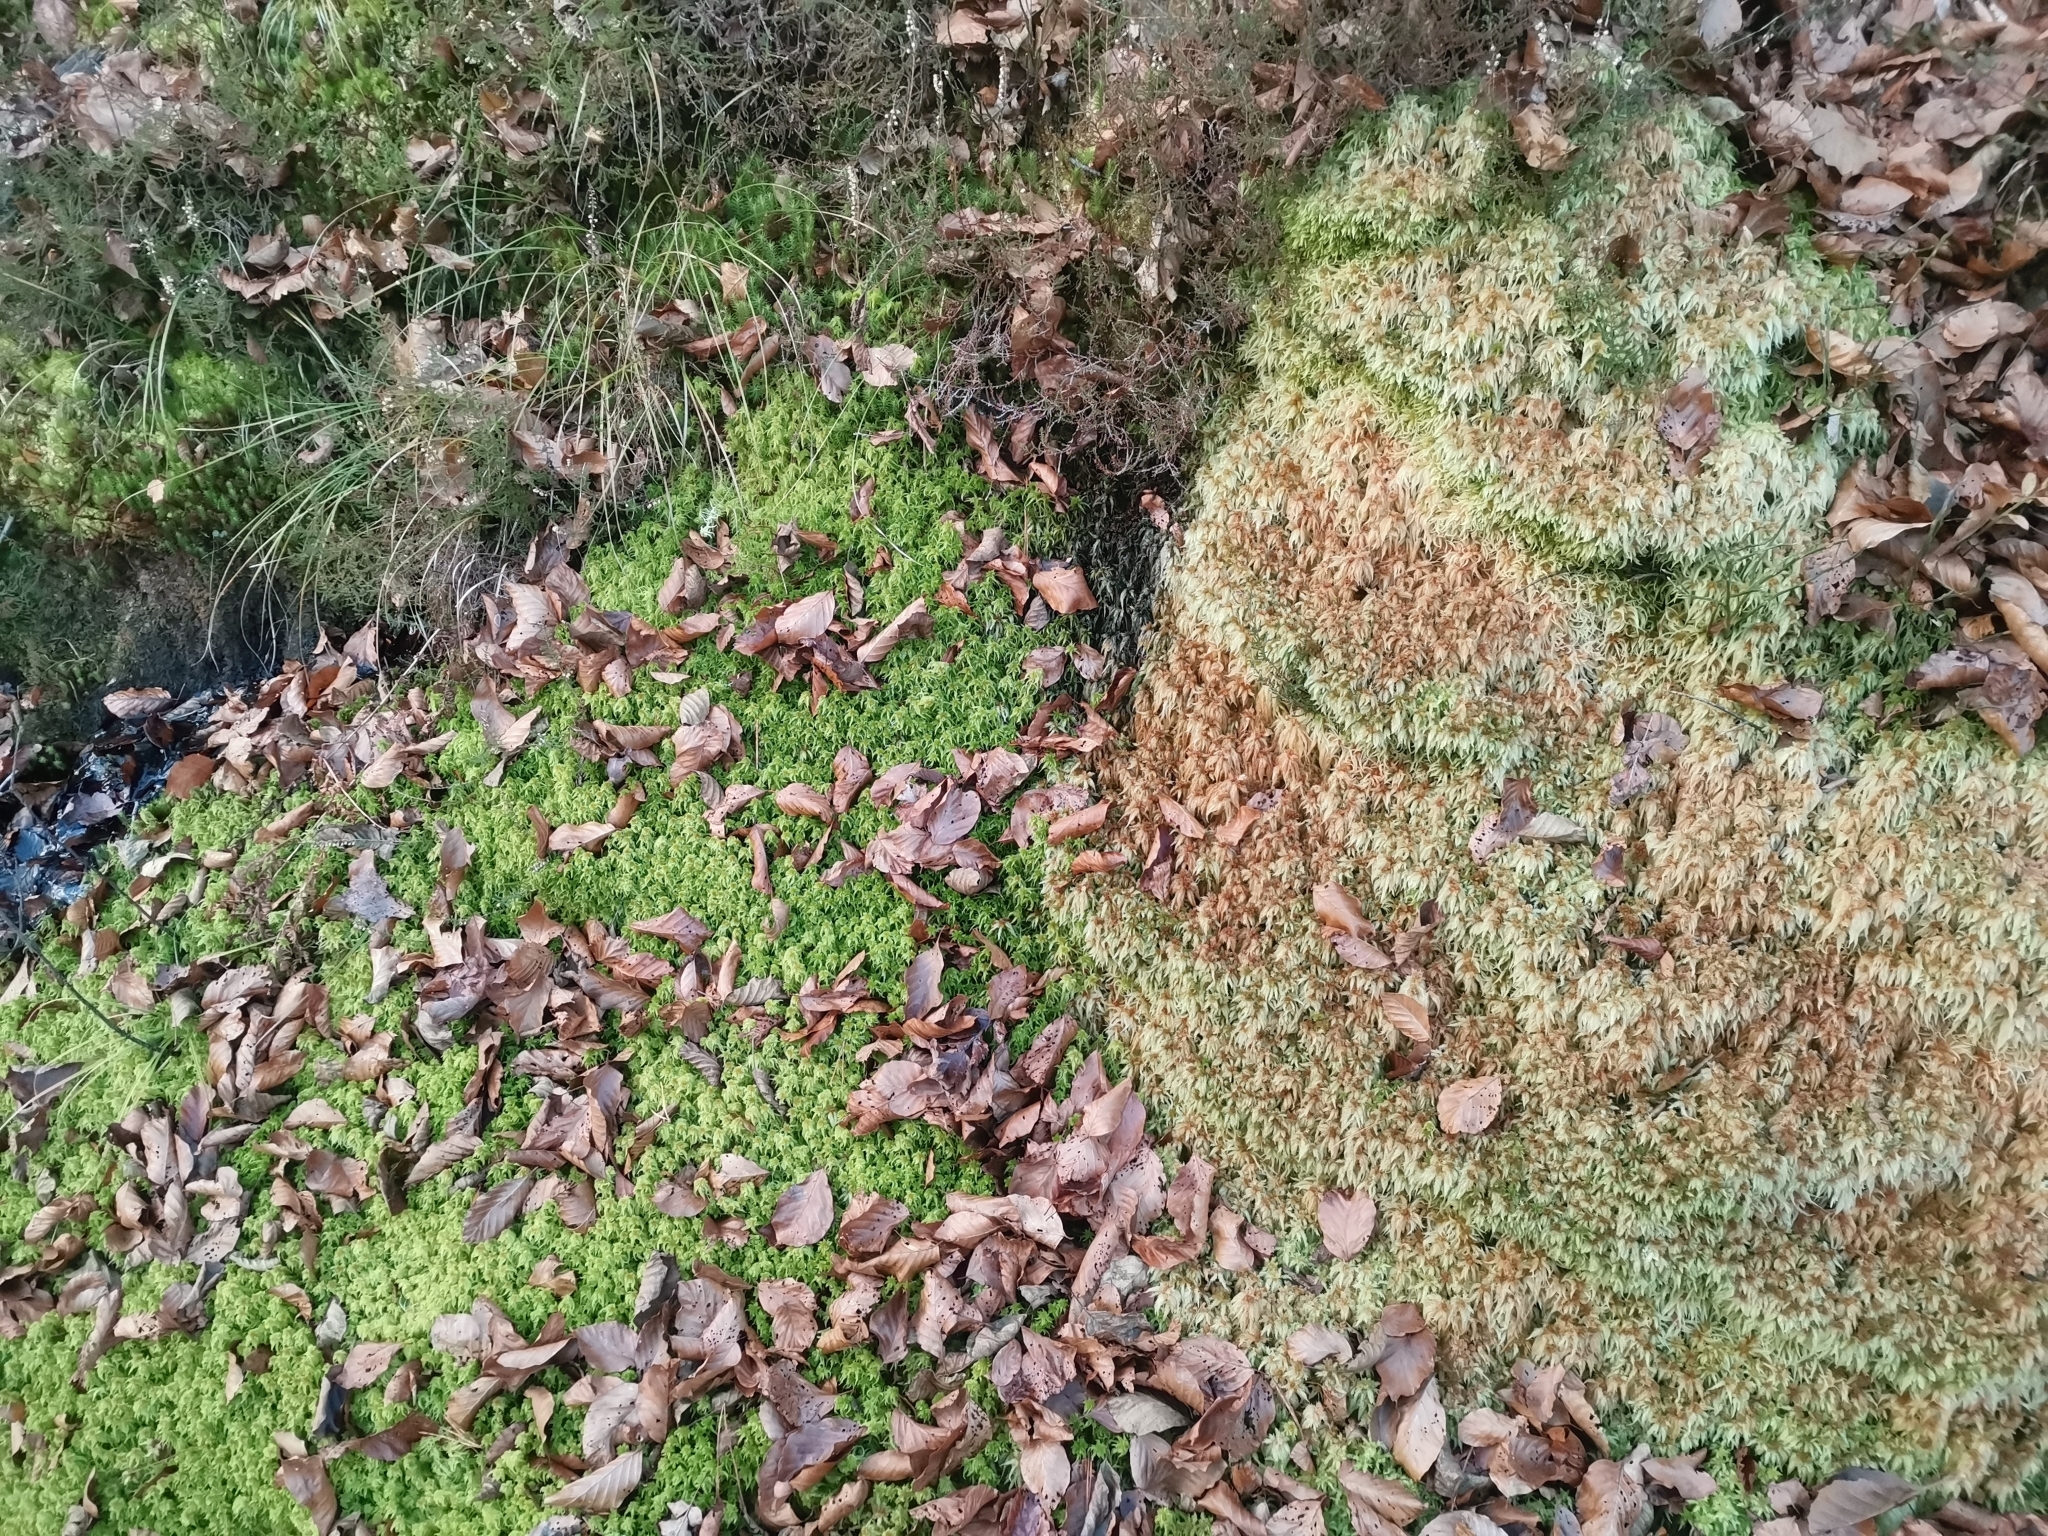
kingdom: Plantae
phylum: Bryophyta
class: Sphagnopsida
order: Sphagnales
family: Sphagnaceae
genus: Sphagnum
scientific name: Sphagnum palustre
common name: Blunt-leaved bog-moss
